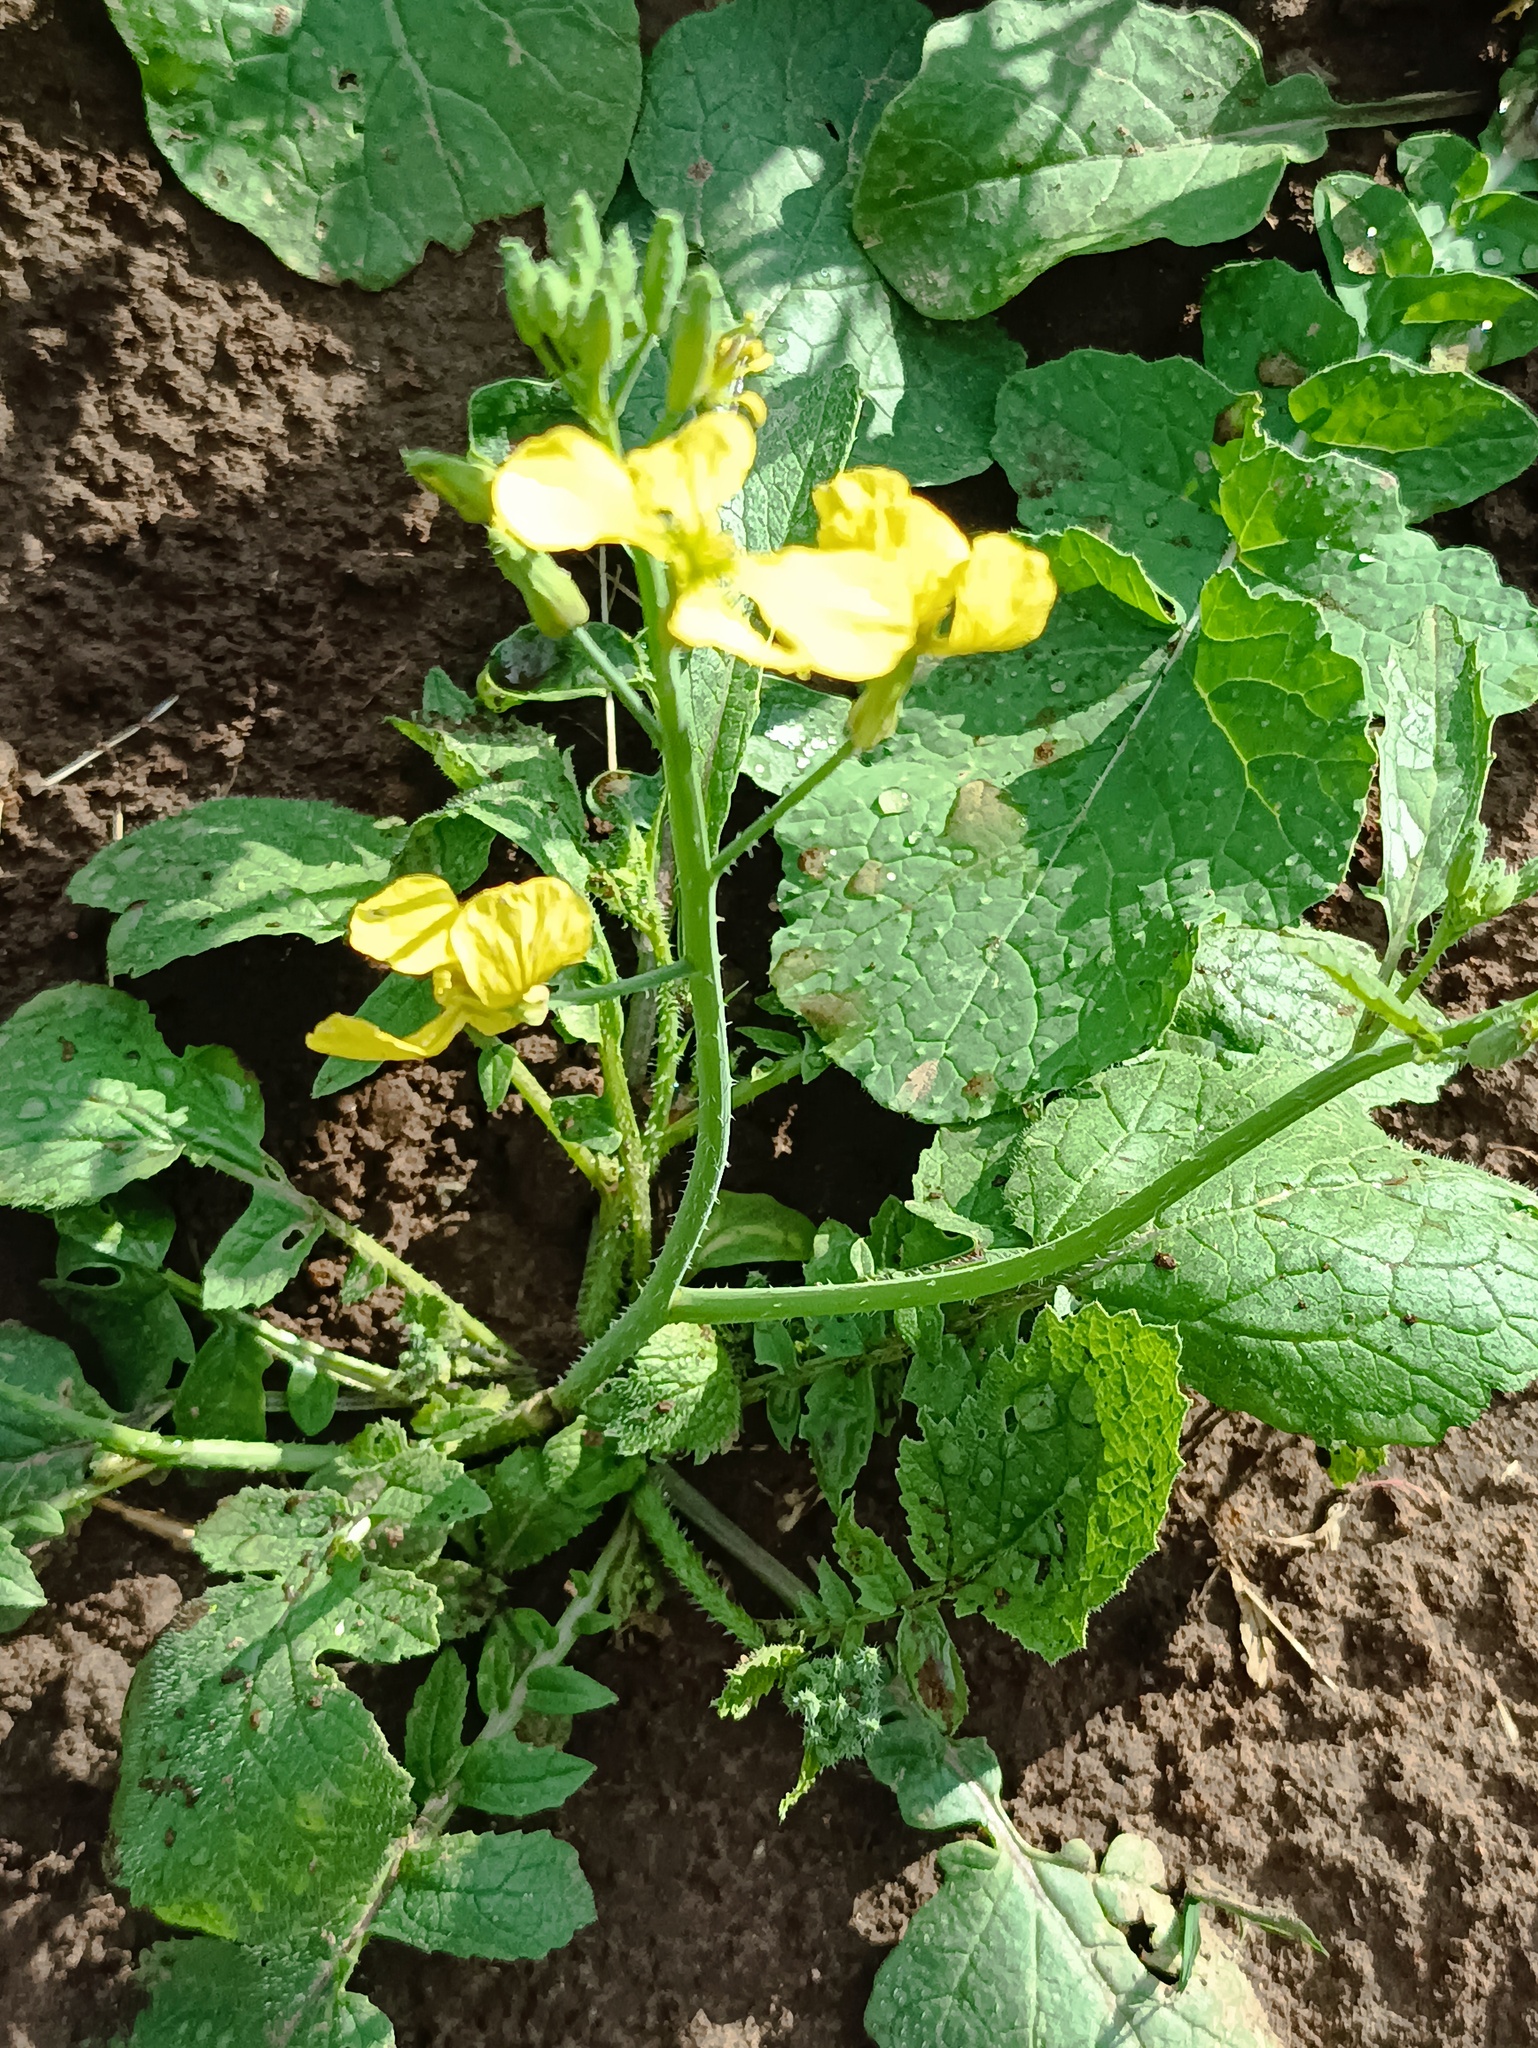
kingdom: Plantae
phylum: Tracheophyta
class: Magnoliopsida
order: Brassicales
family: Brassicaceae
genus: Raphanus
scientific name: Raphanus raphanistrum
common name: Wild radish
